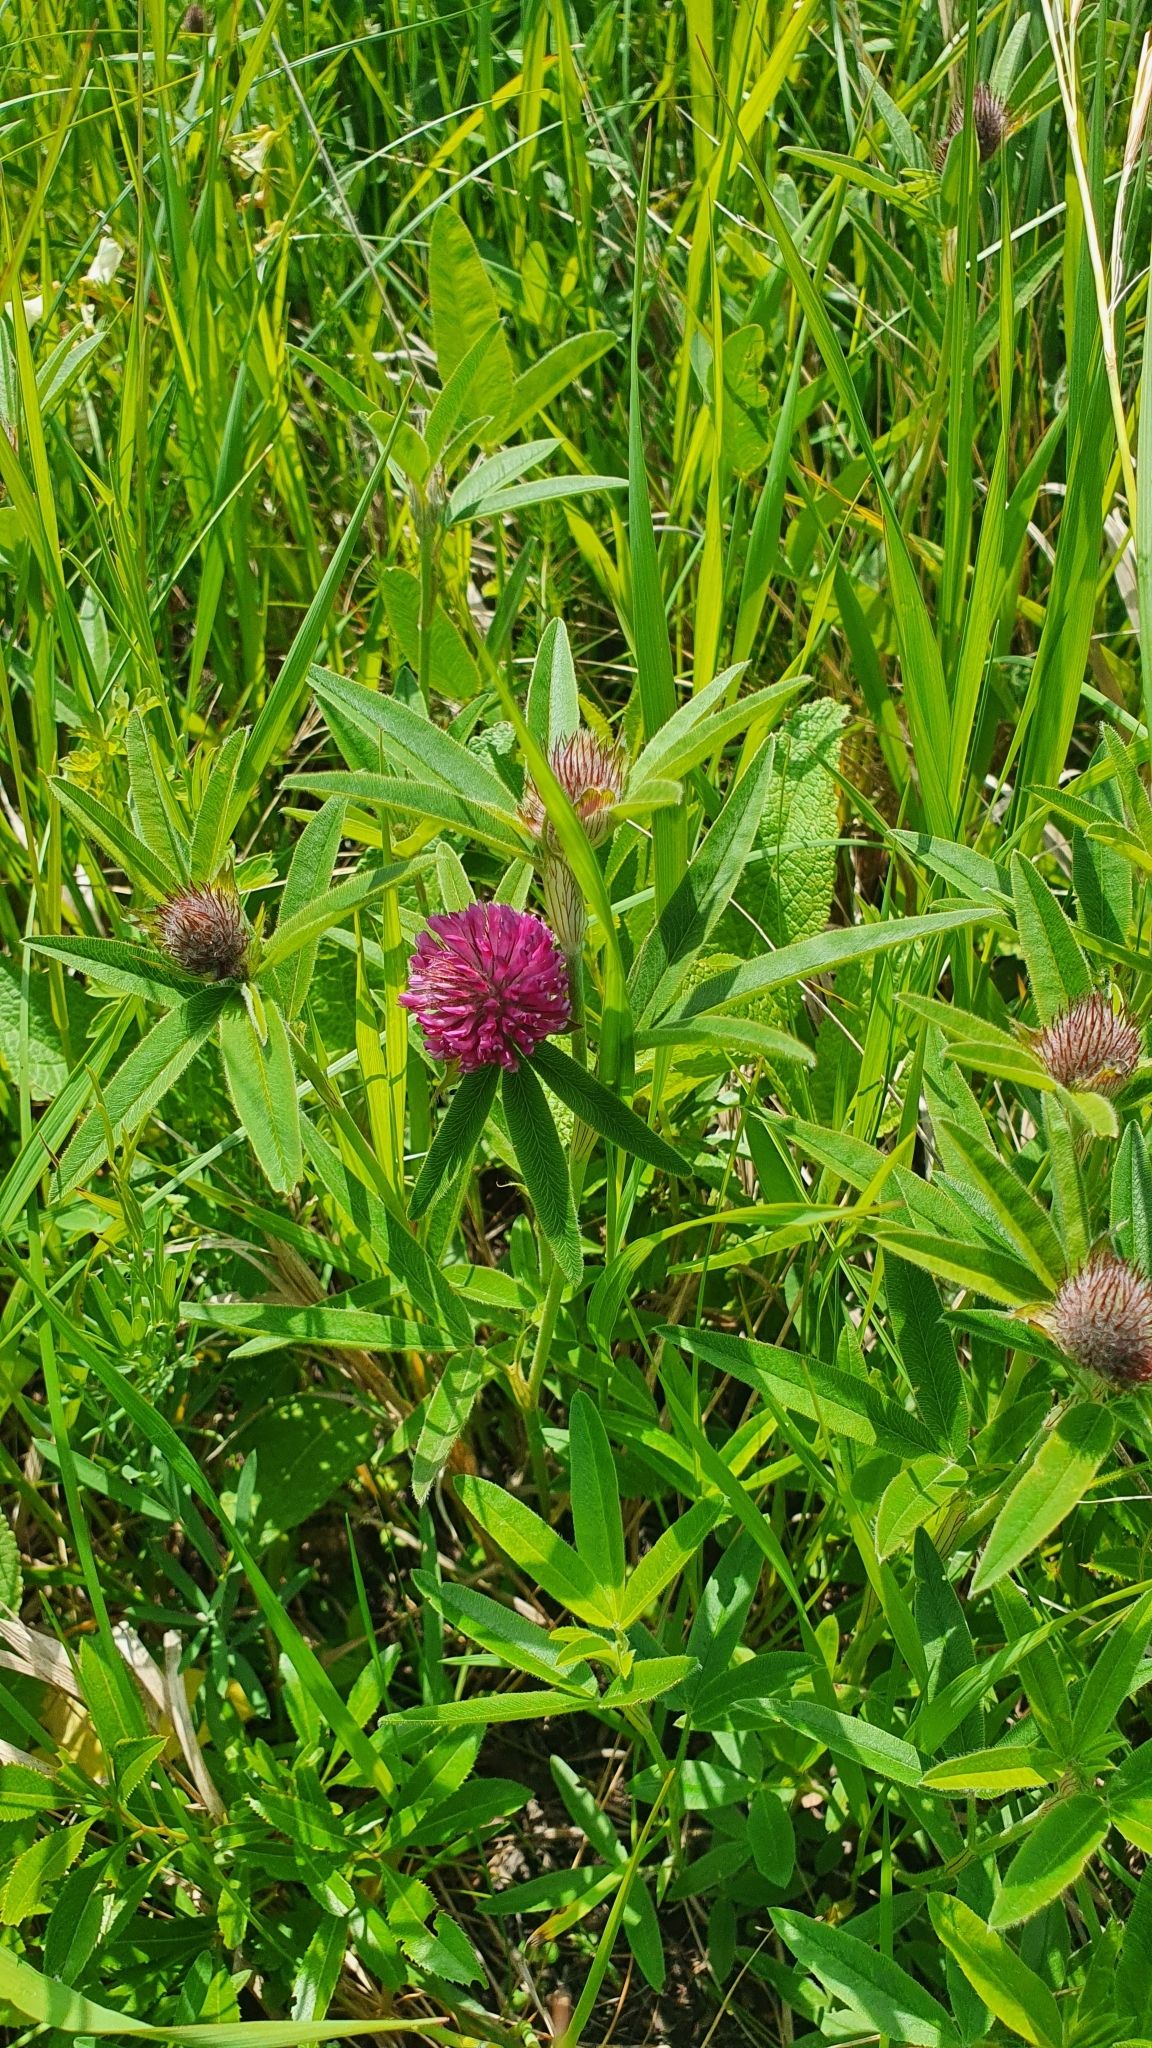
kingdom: Plantae
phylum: Tracheophyta
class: Magnoliopsida
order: Fabales
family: Fabaceae
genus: Trifolium
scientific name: Trifolium alpestre
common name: Owl-head clover
